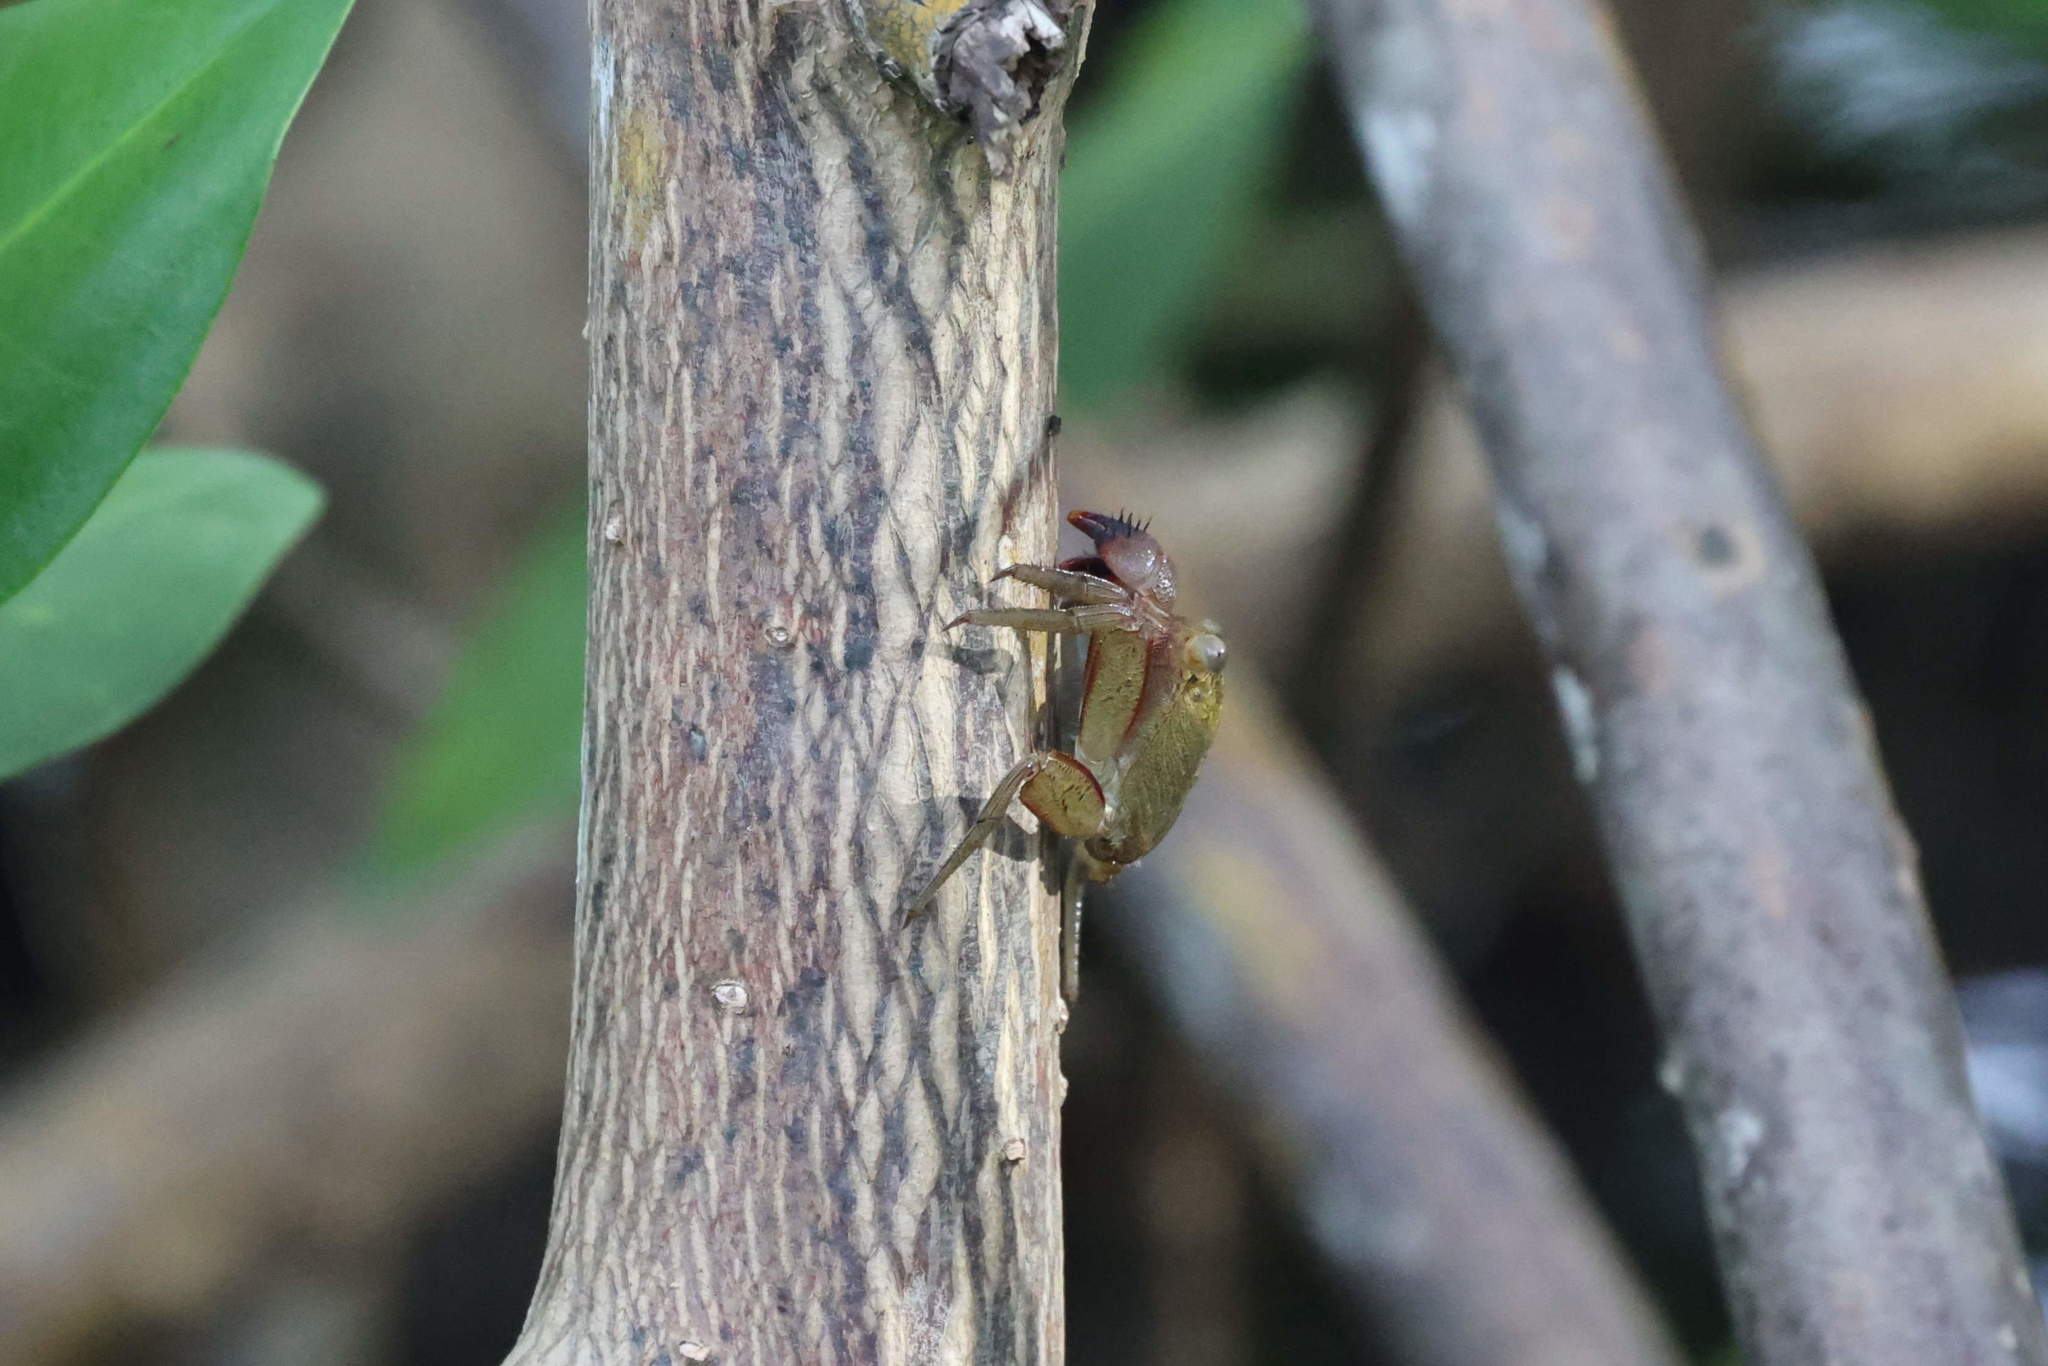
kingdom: Animalia
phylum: Arthropoda
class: Malacostraca
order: Decapoda
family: Sesarmidae
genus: Aratus
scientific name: Aratus pisonii
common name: Mangrove crab
